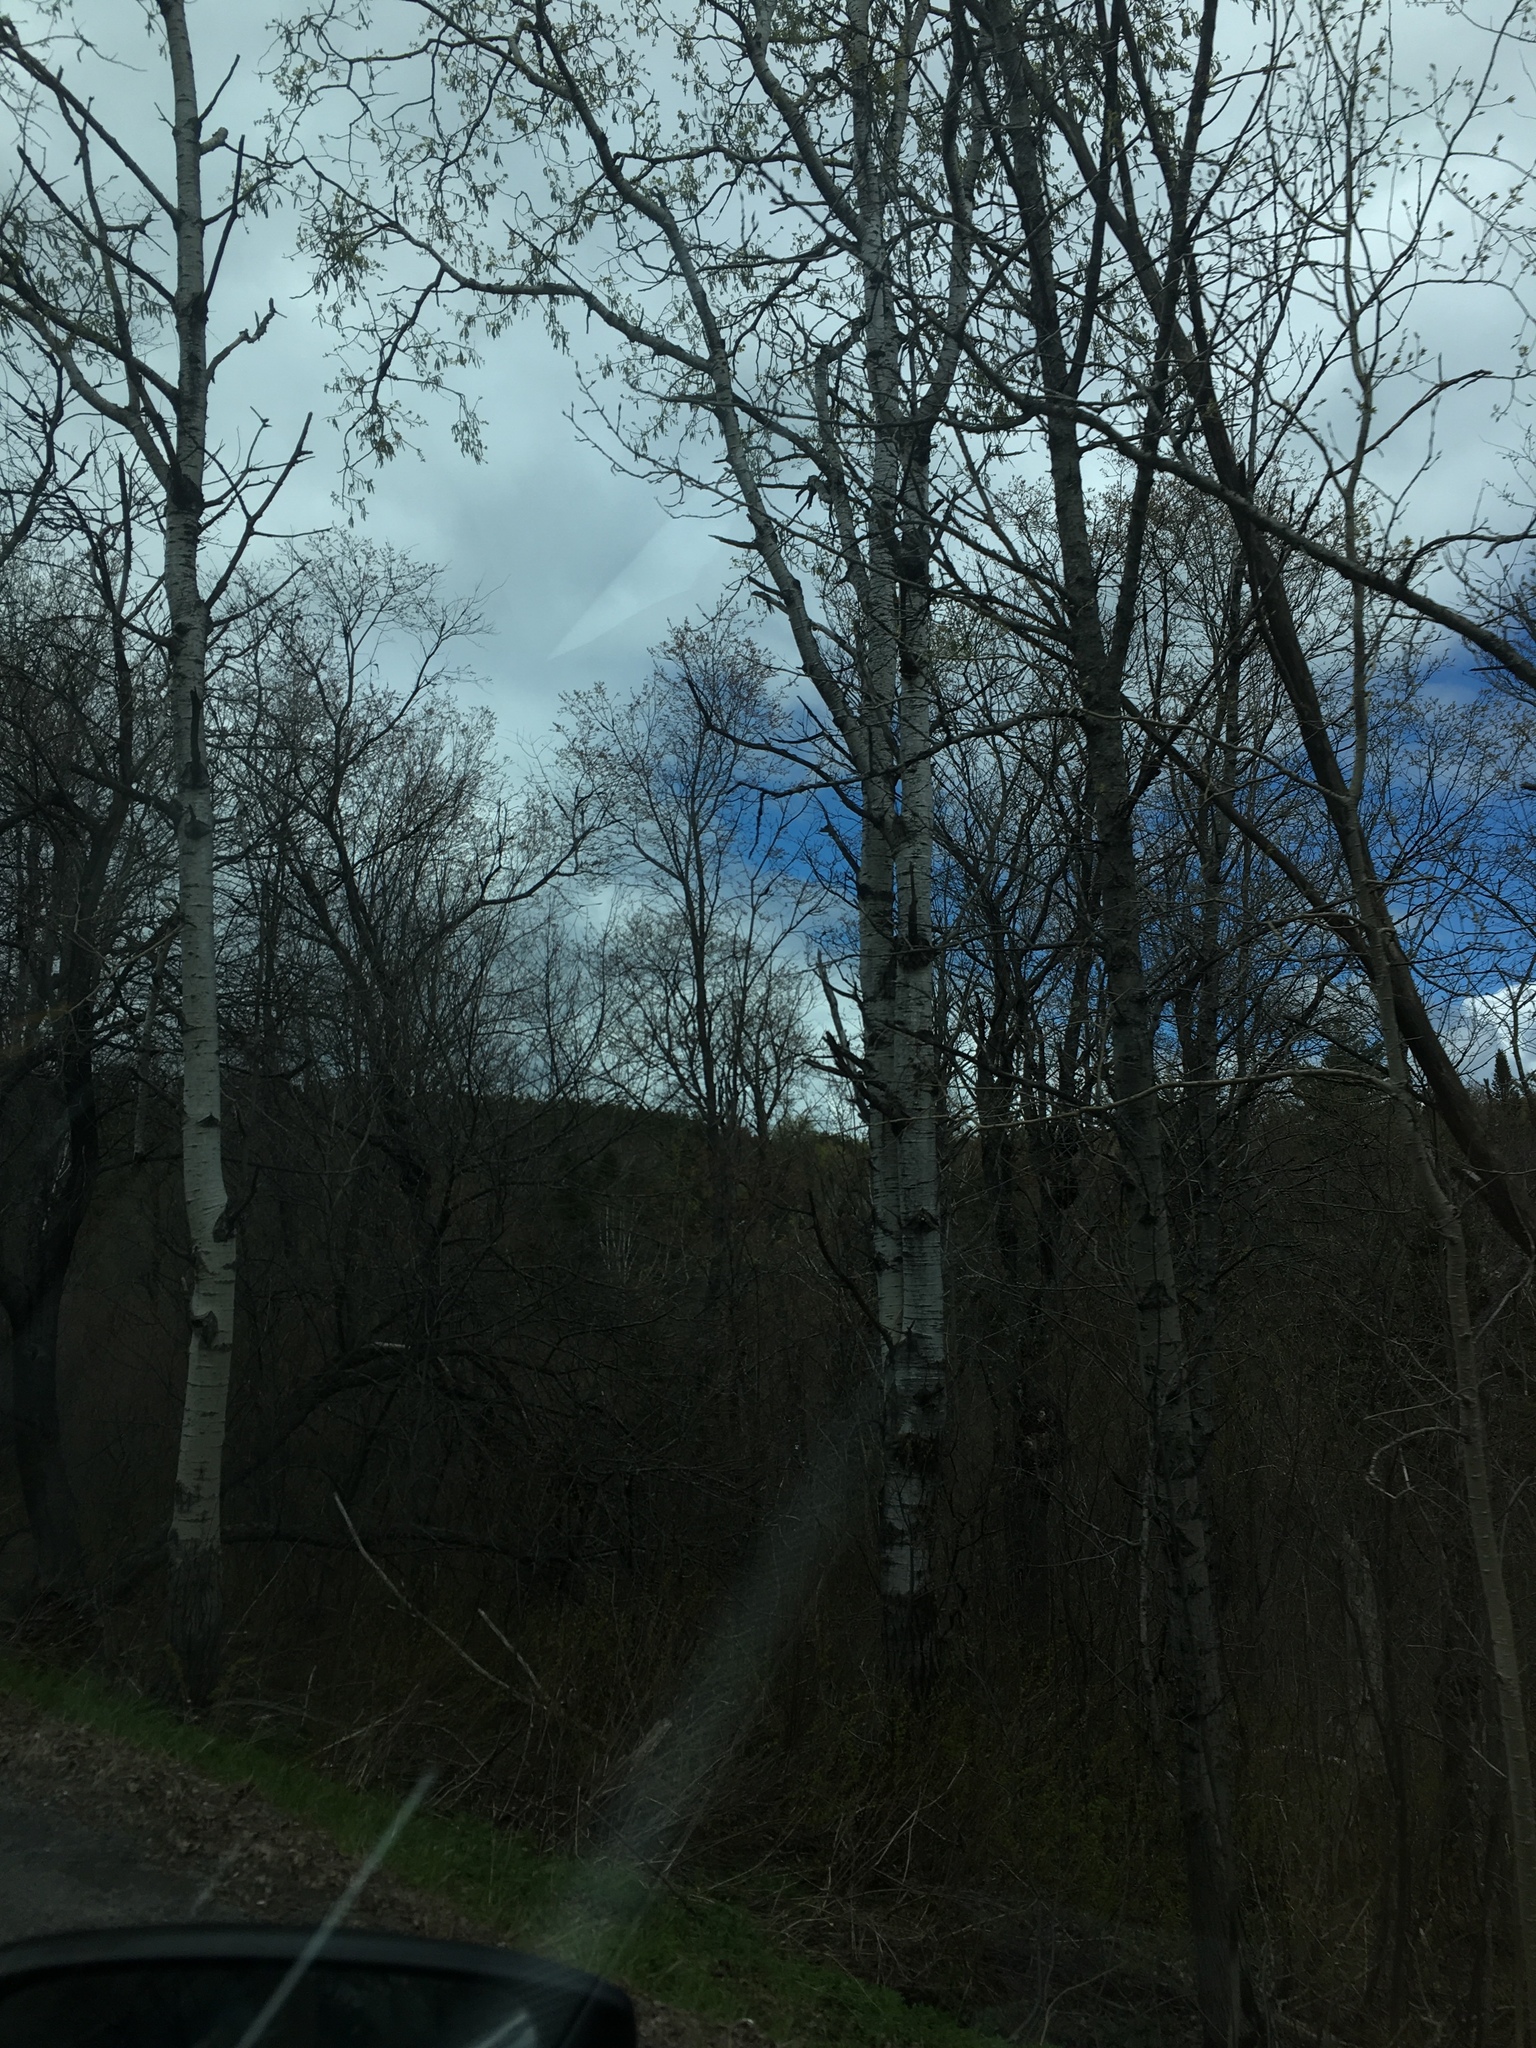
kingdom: Plantae
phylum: Tracheophyta
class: Magnoliopsida
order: Malpighiales
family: Salicaceae
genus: Populus
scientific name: Populus tremuloides
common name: Quaking aspen
